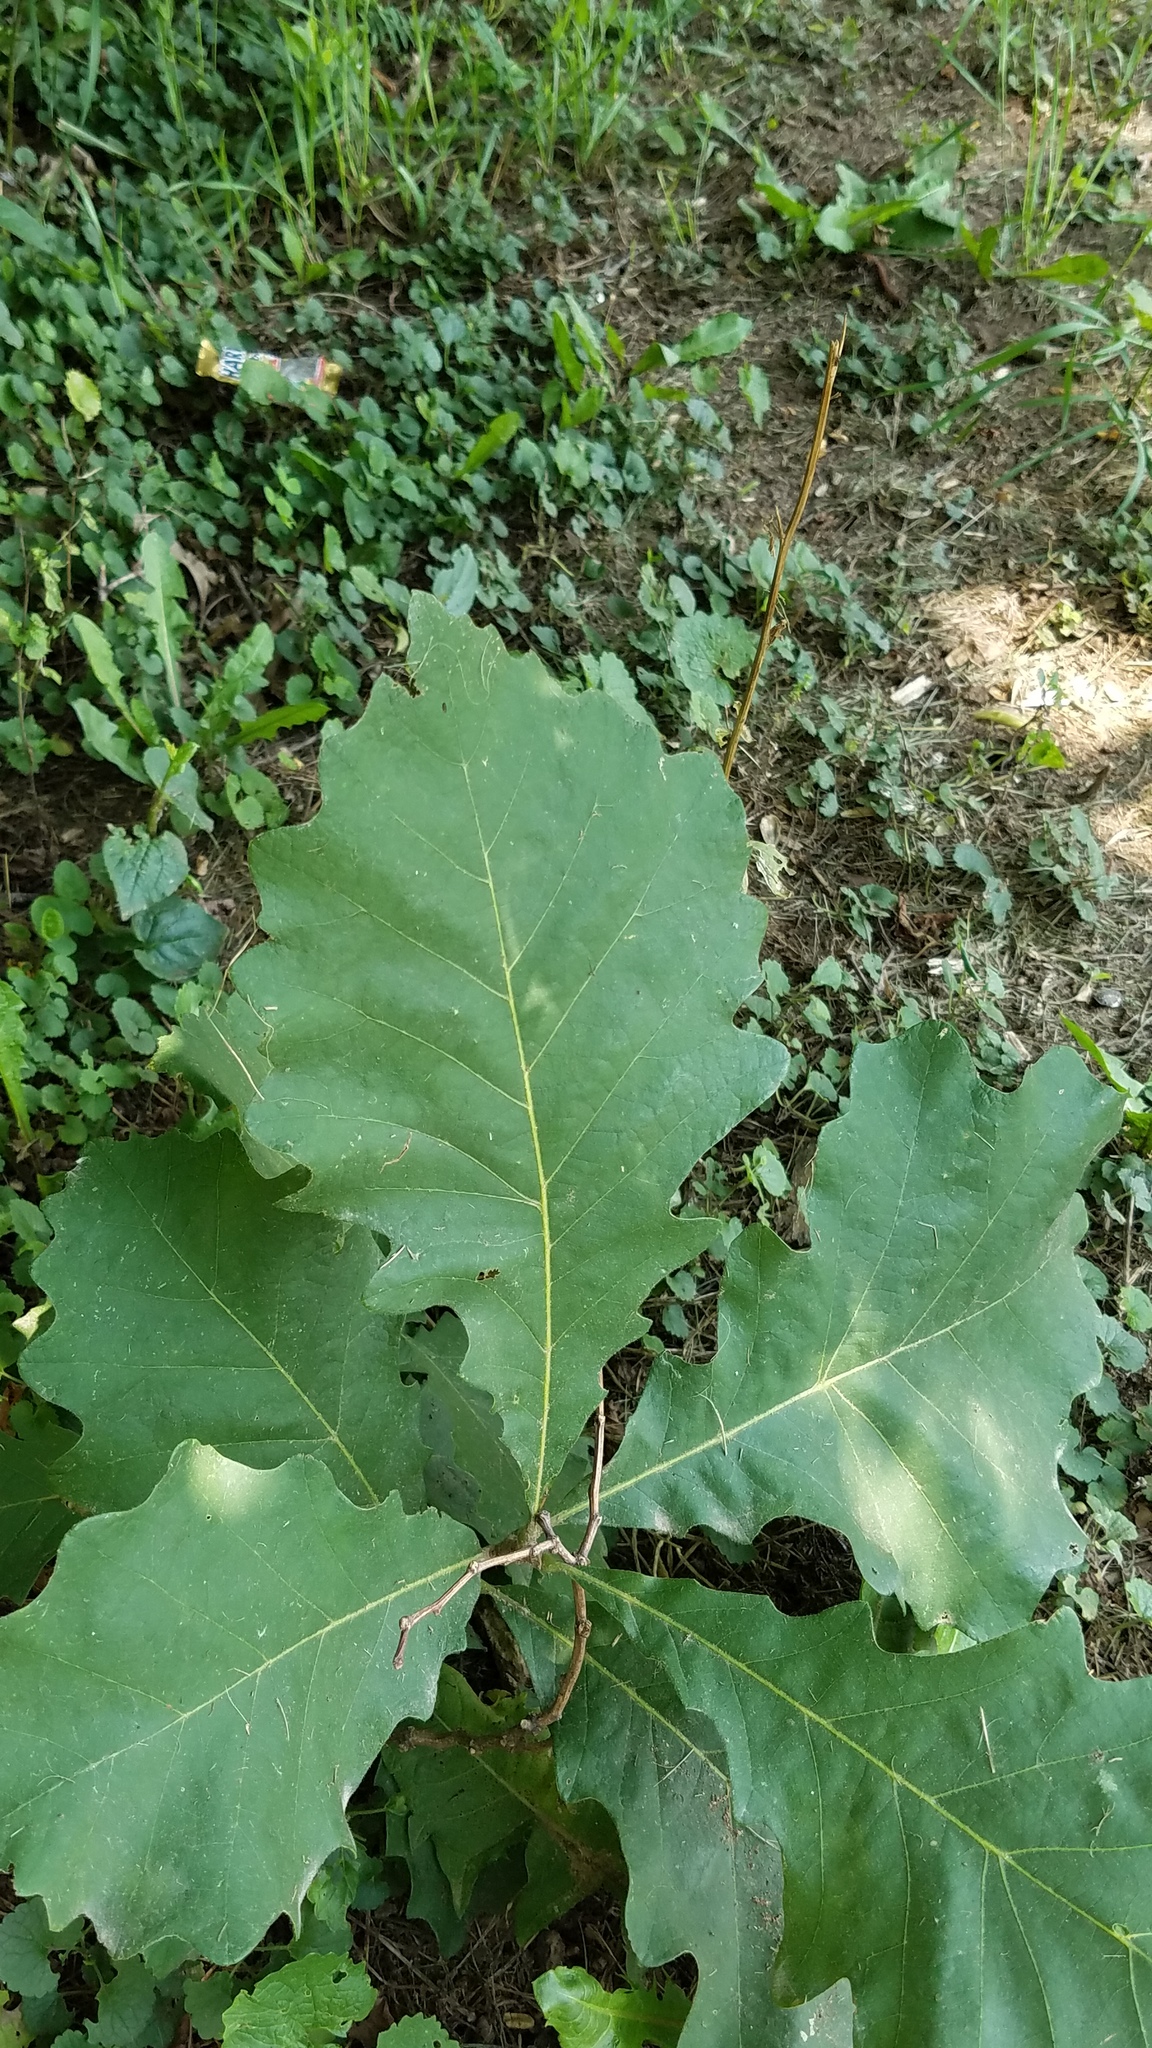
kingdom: Plantae
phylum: Tracheophyta
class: Magnoliopsida
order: Fagales
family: Fagaceae
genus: Quercus
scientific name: Quercus macrocarpa
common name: Bur oak
